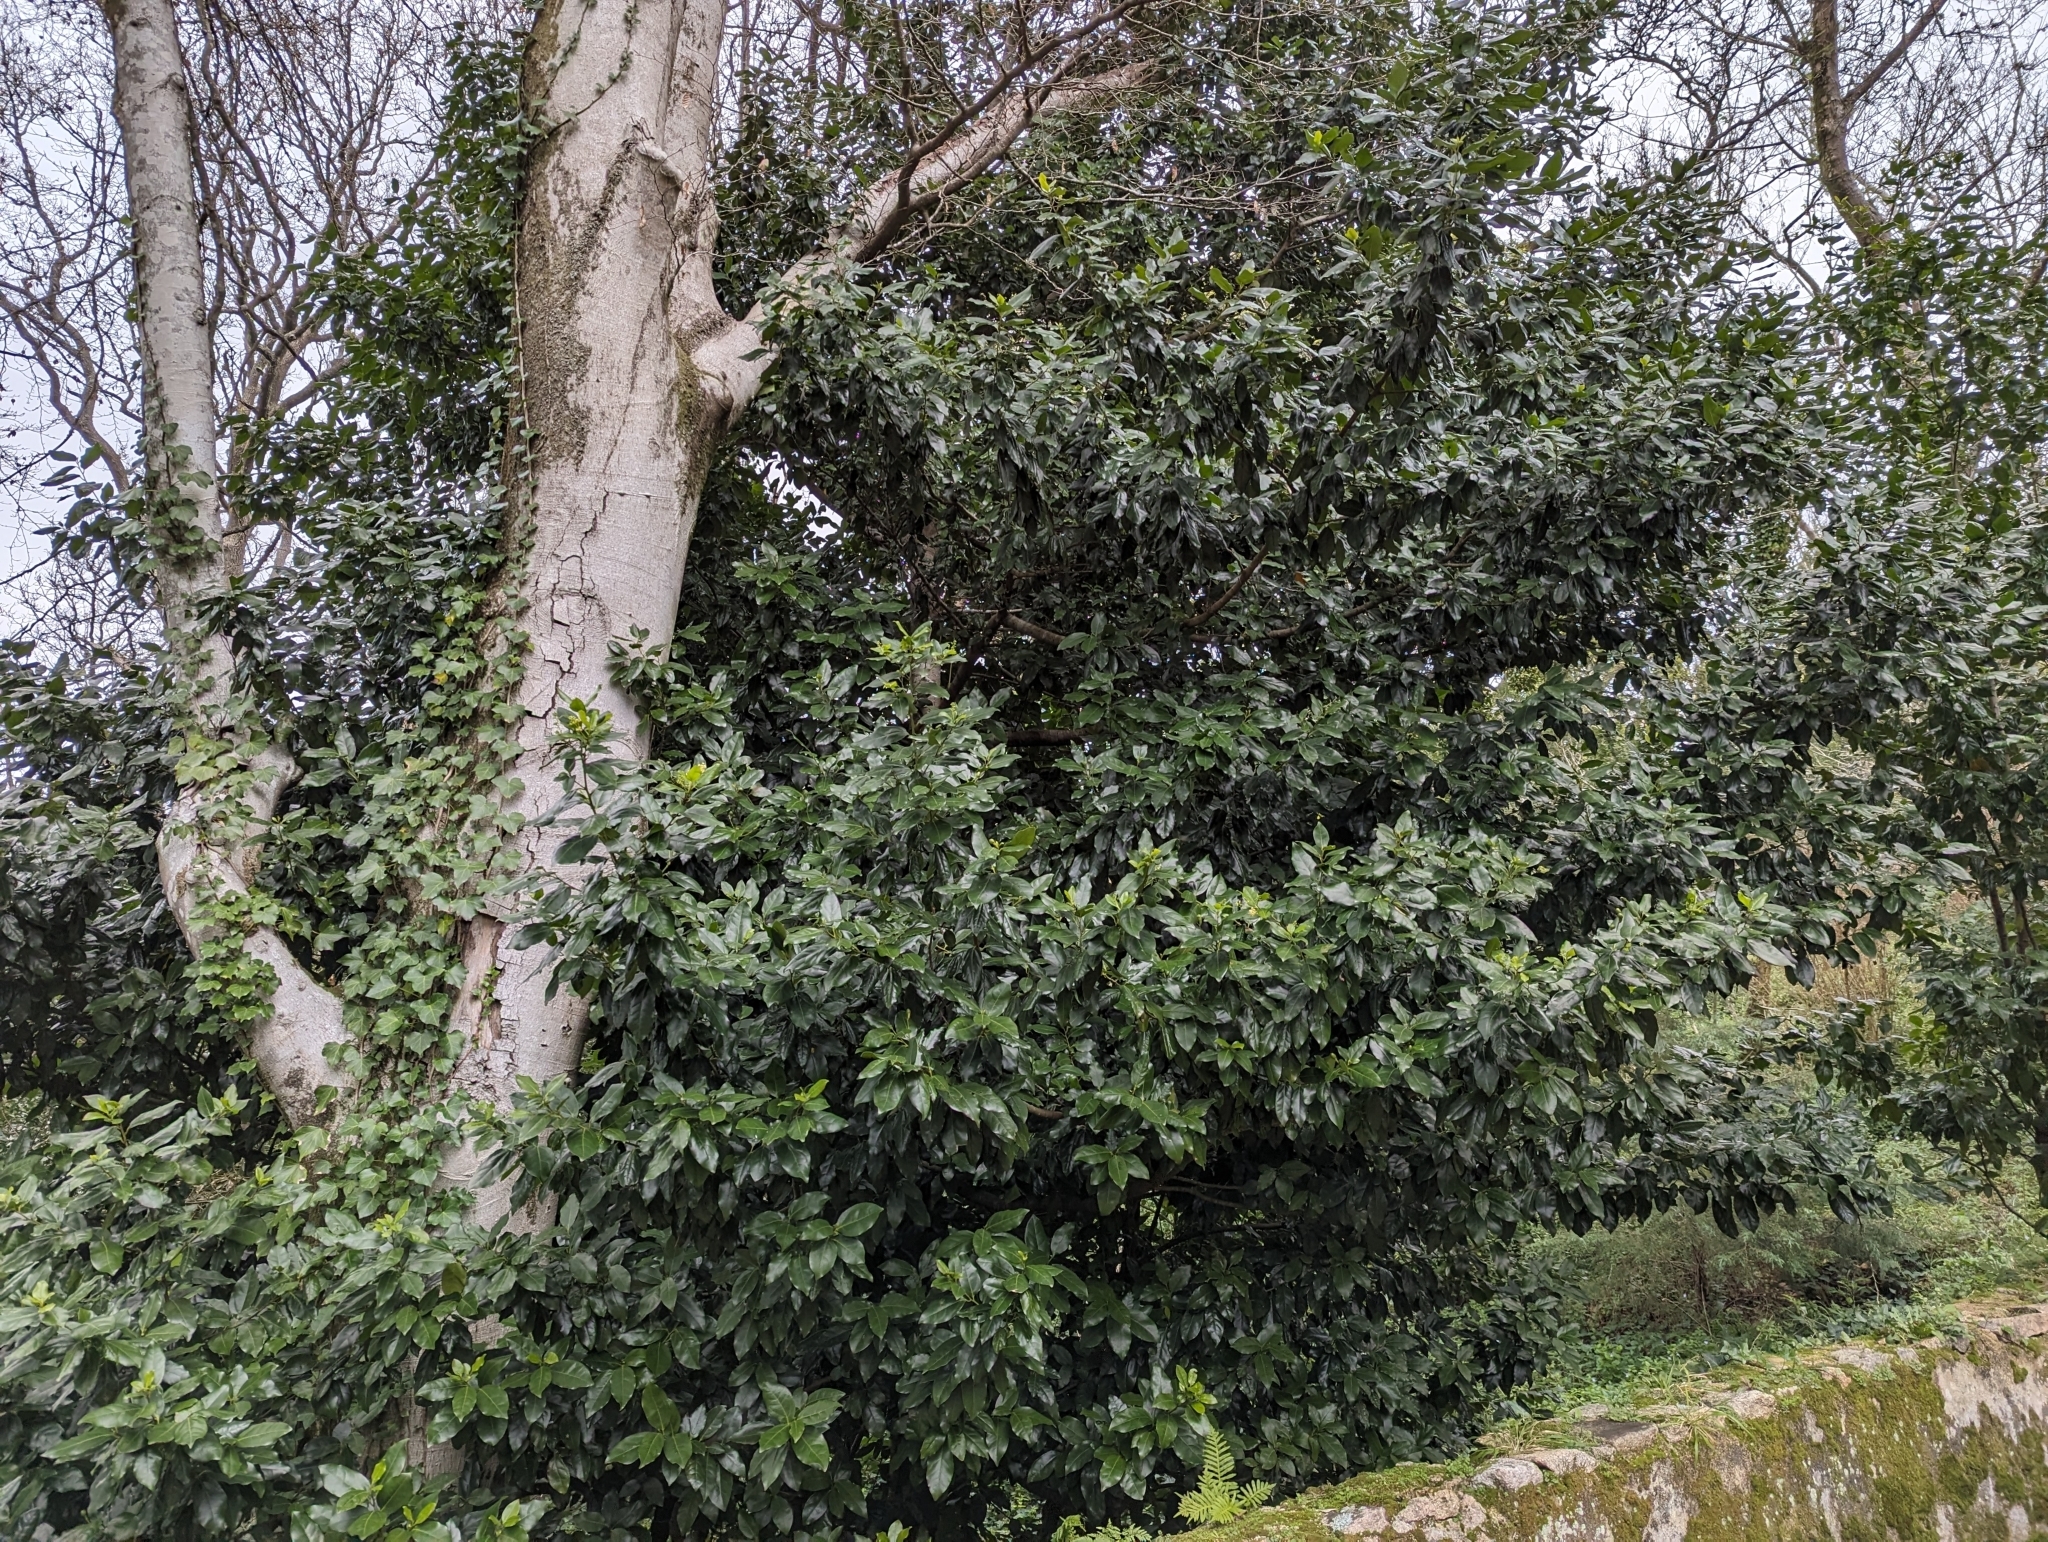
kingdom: Plantae
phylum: Tracheophyta
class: Magnoliopsida
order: Laurales
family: Lauraceae
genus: Mespilodaphne
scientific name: Mespilodaphne foetens
